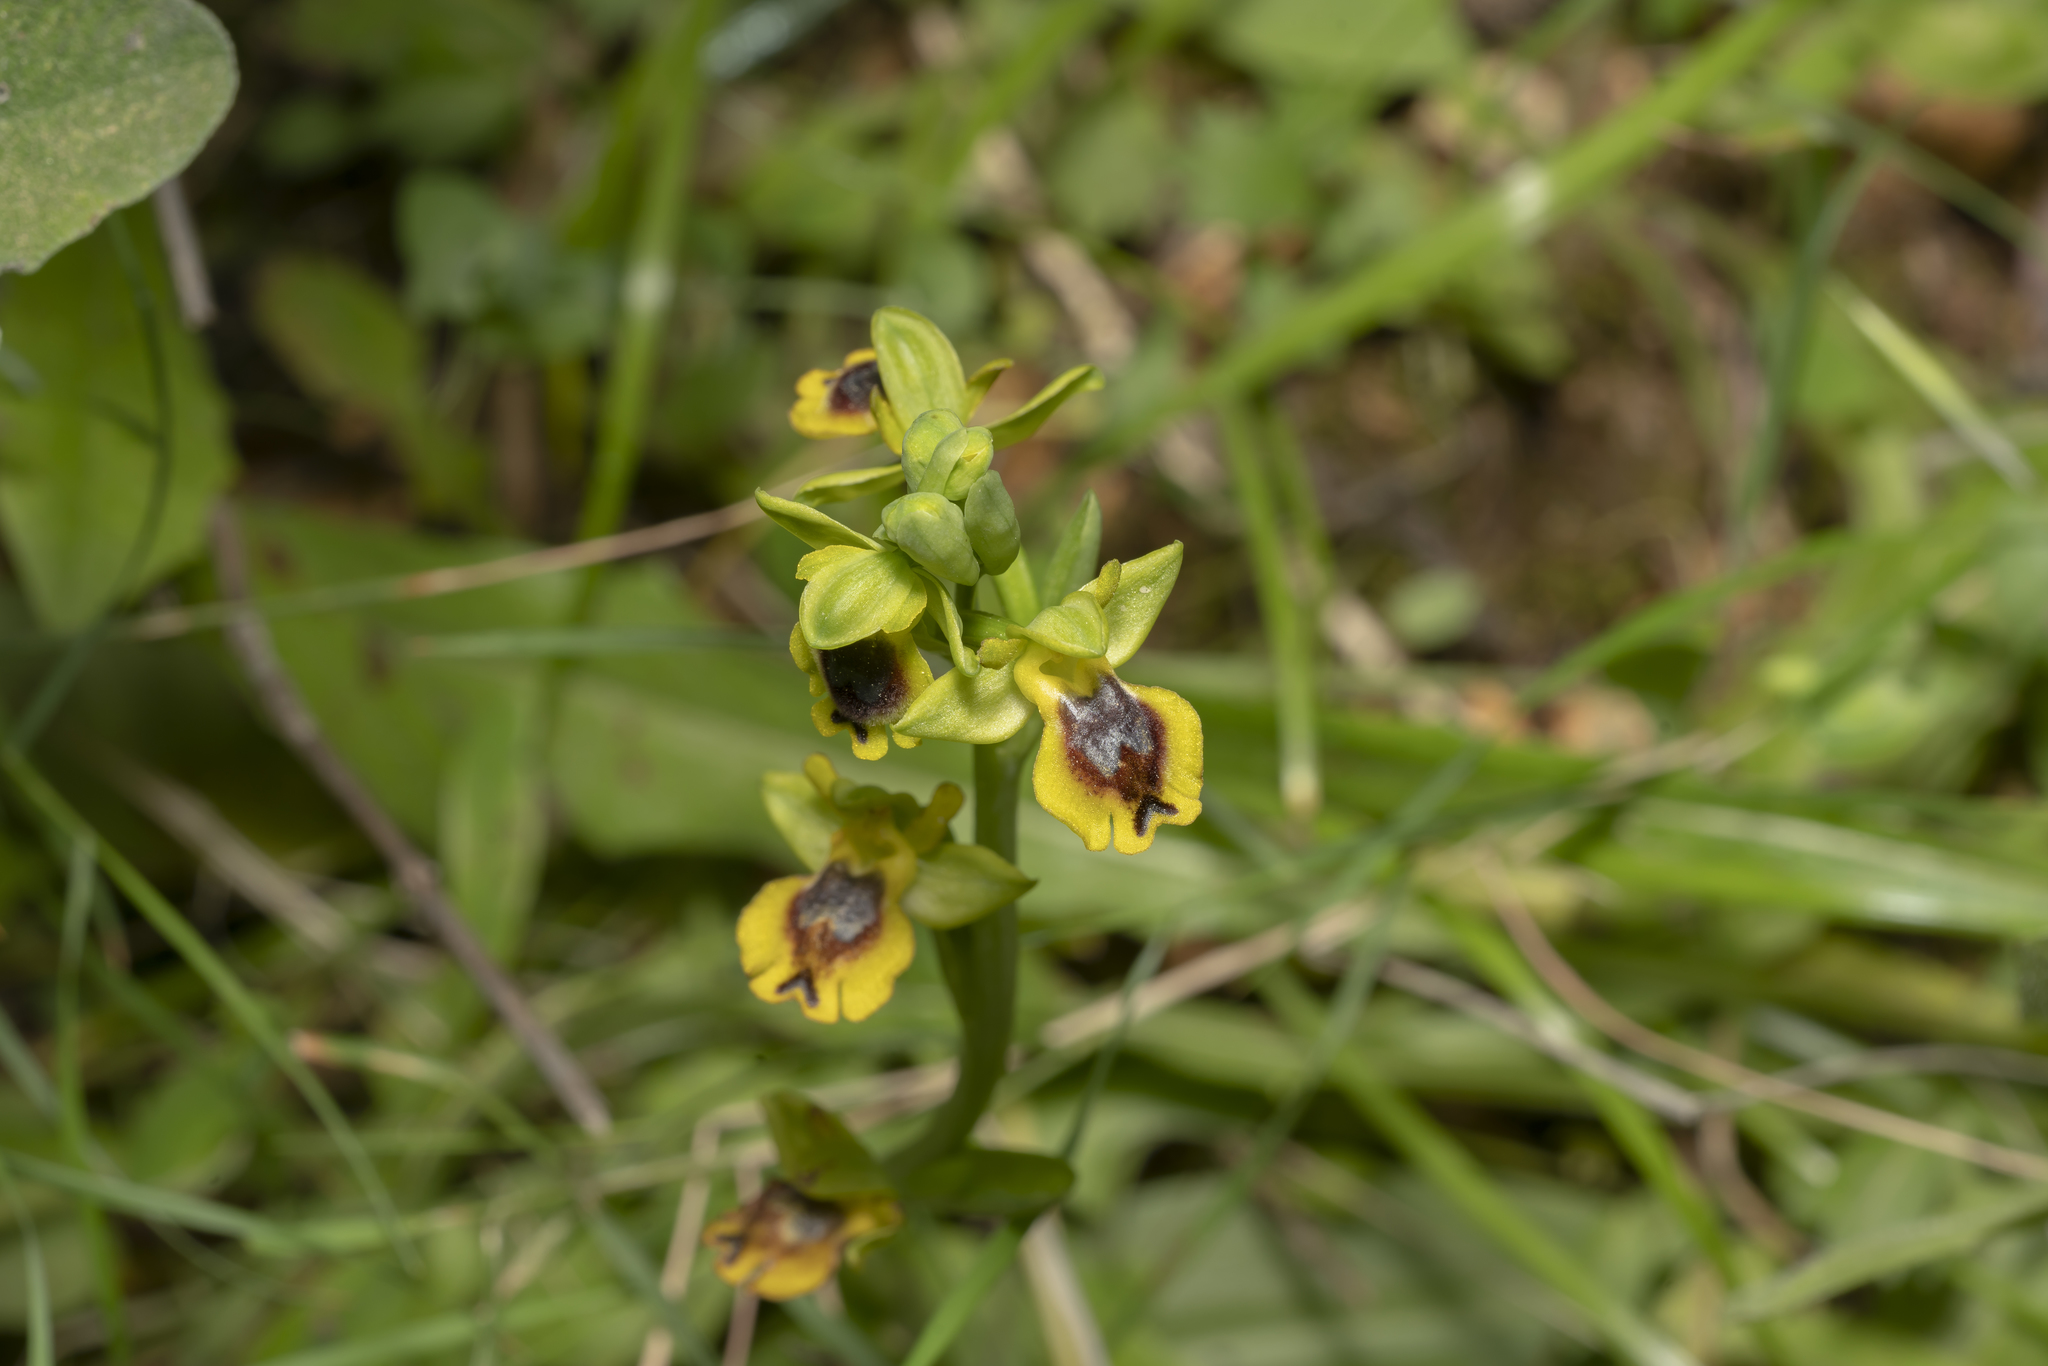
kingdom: Plantae
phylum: Tracheophyta
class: Liliopsida
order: Asparagales
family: Orchidaceae
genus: Ophrys
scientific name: Ophrys lutea
